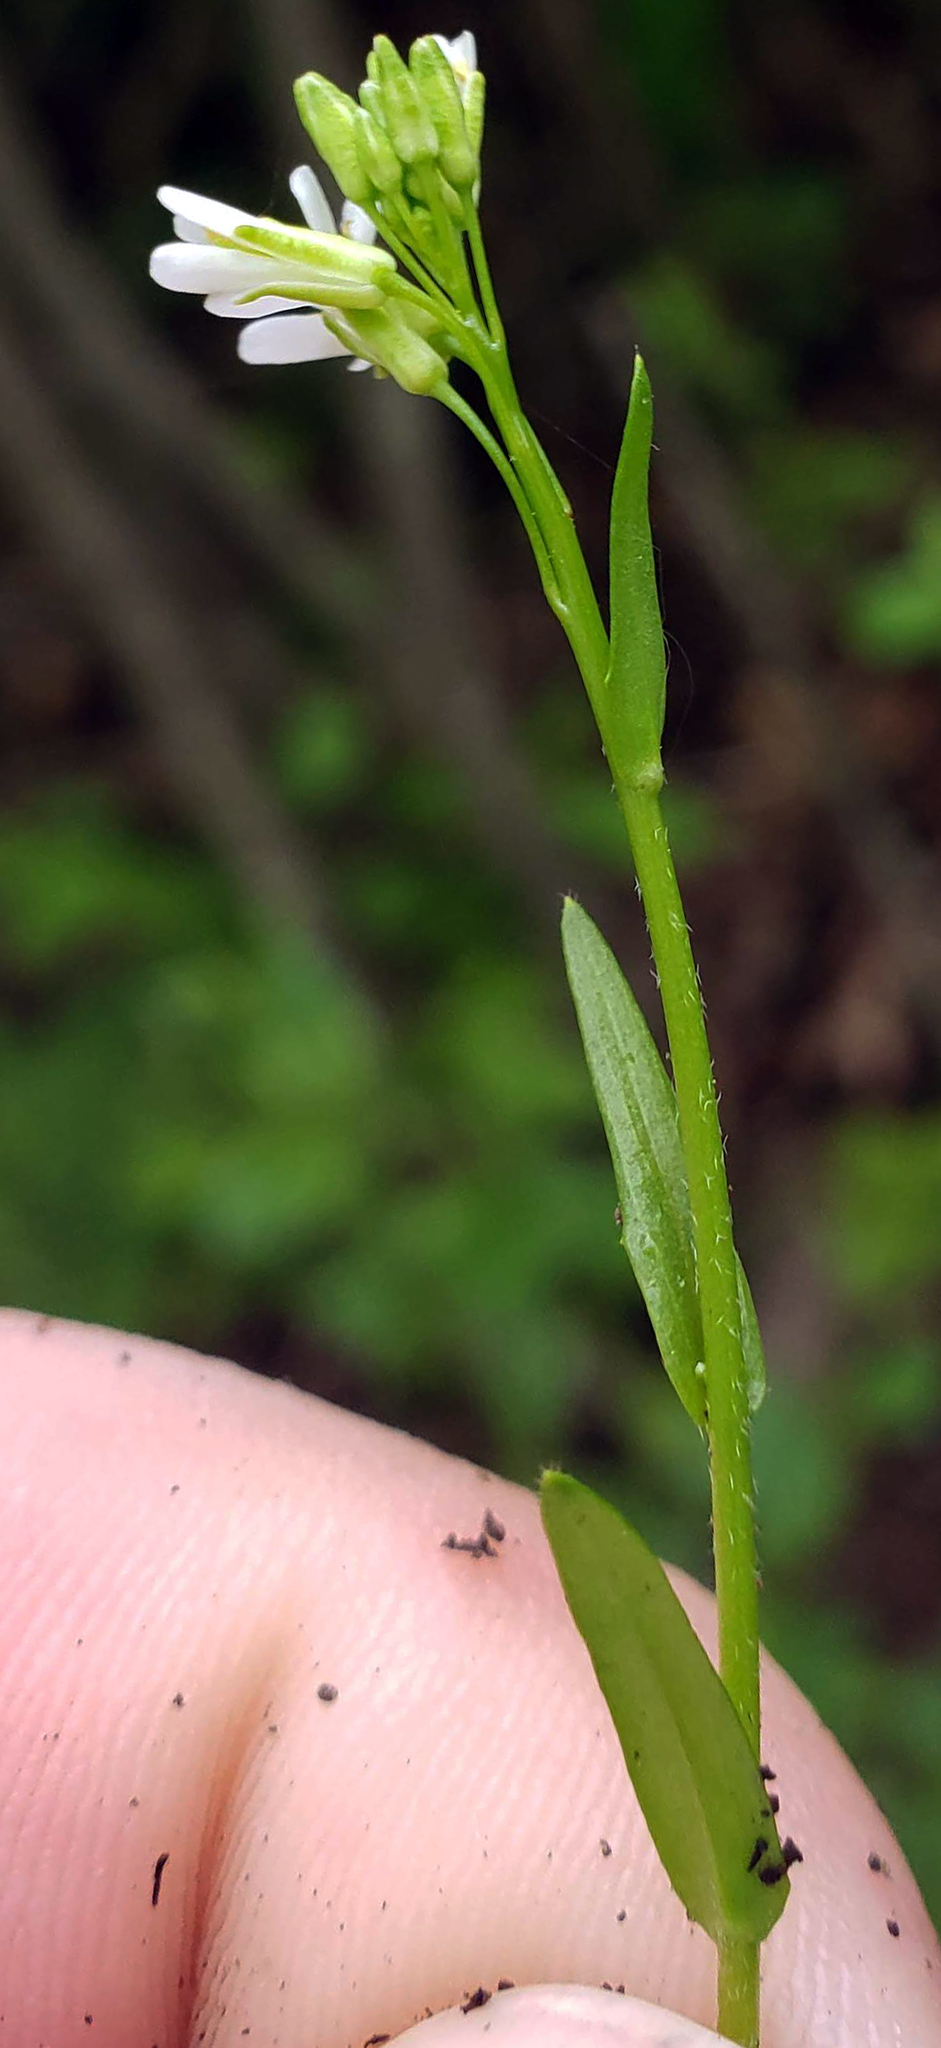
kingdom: Plantae
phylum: Tracheophyta
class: Magnoliopsida
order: Brassicales
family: Brassicaceae
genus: Arabis
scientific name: Arabis pycnocarpa
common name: Blushing rockcress
